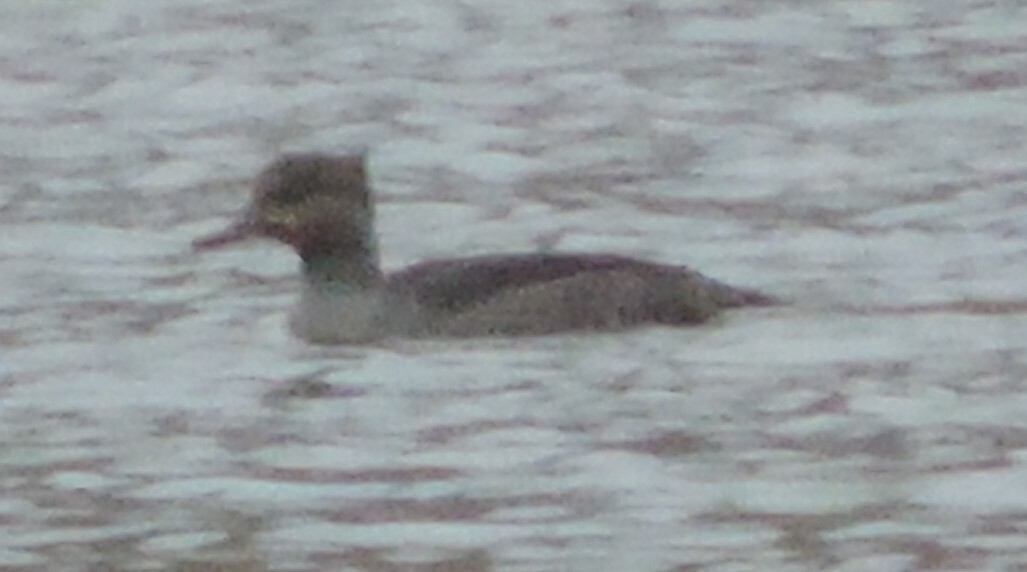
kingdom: Animalia
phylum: Chordata
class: Aves
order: Anseriformes
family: Anatidae
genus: Lophodytes
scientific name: Lophodytes cucullatus
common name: Hooded merganser
